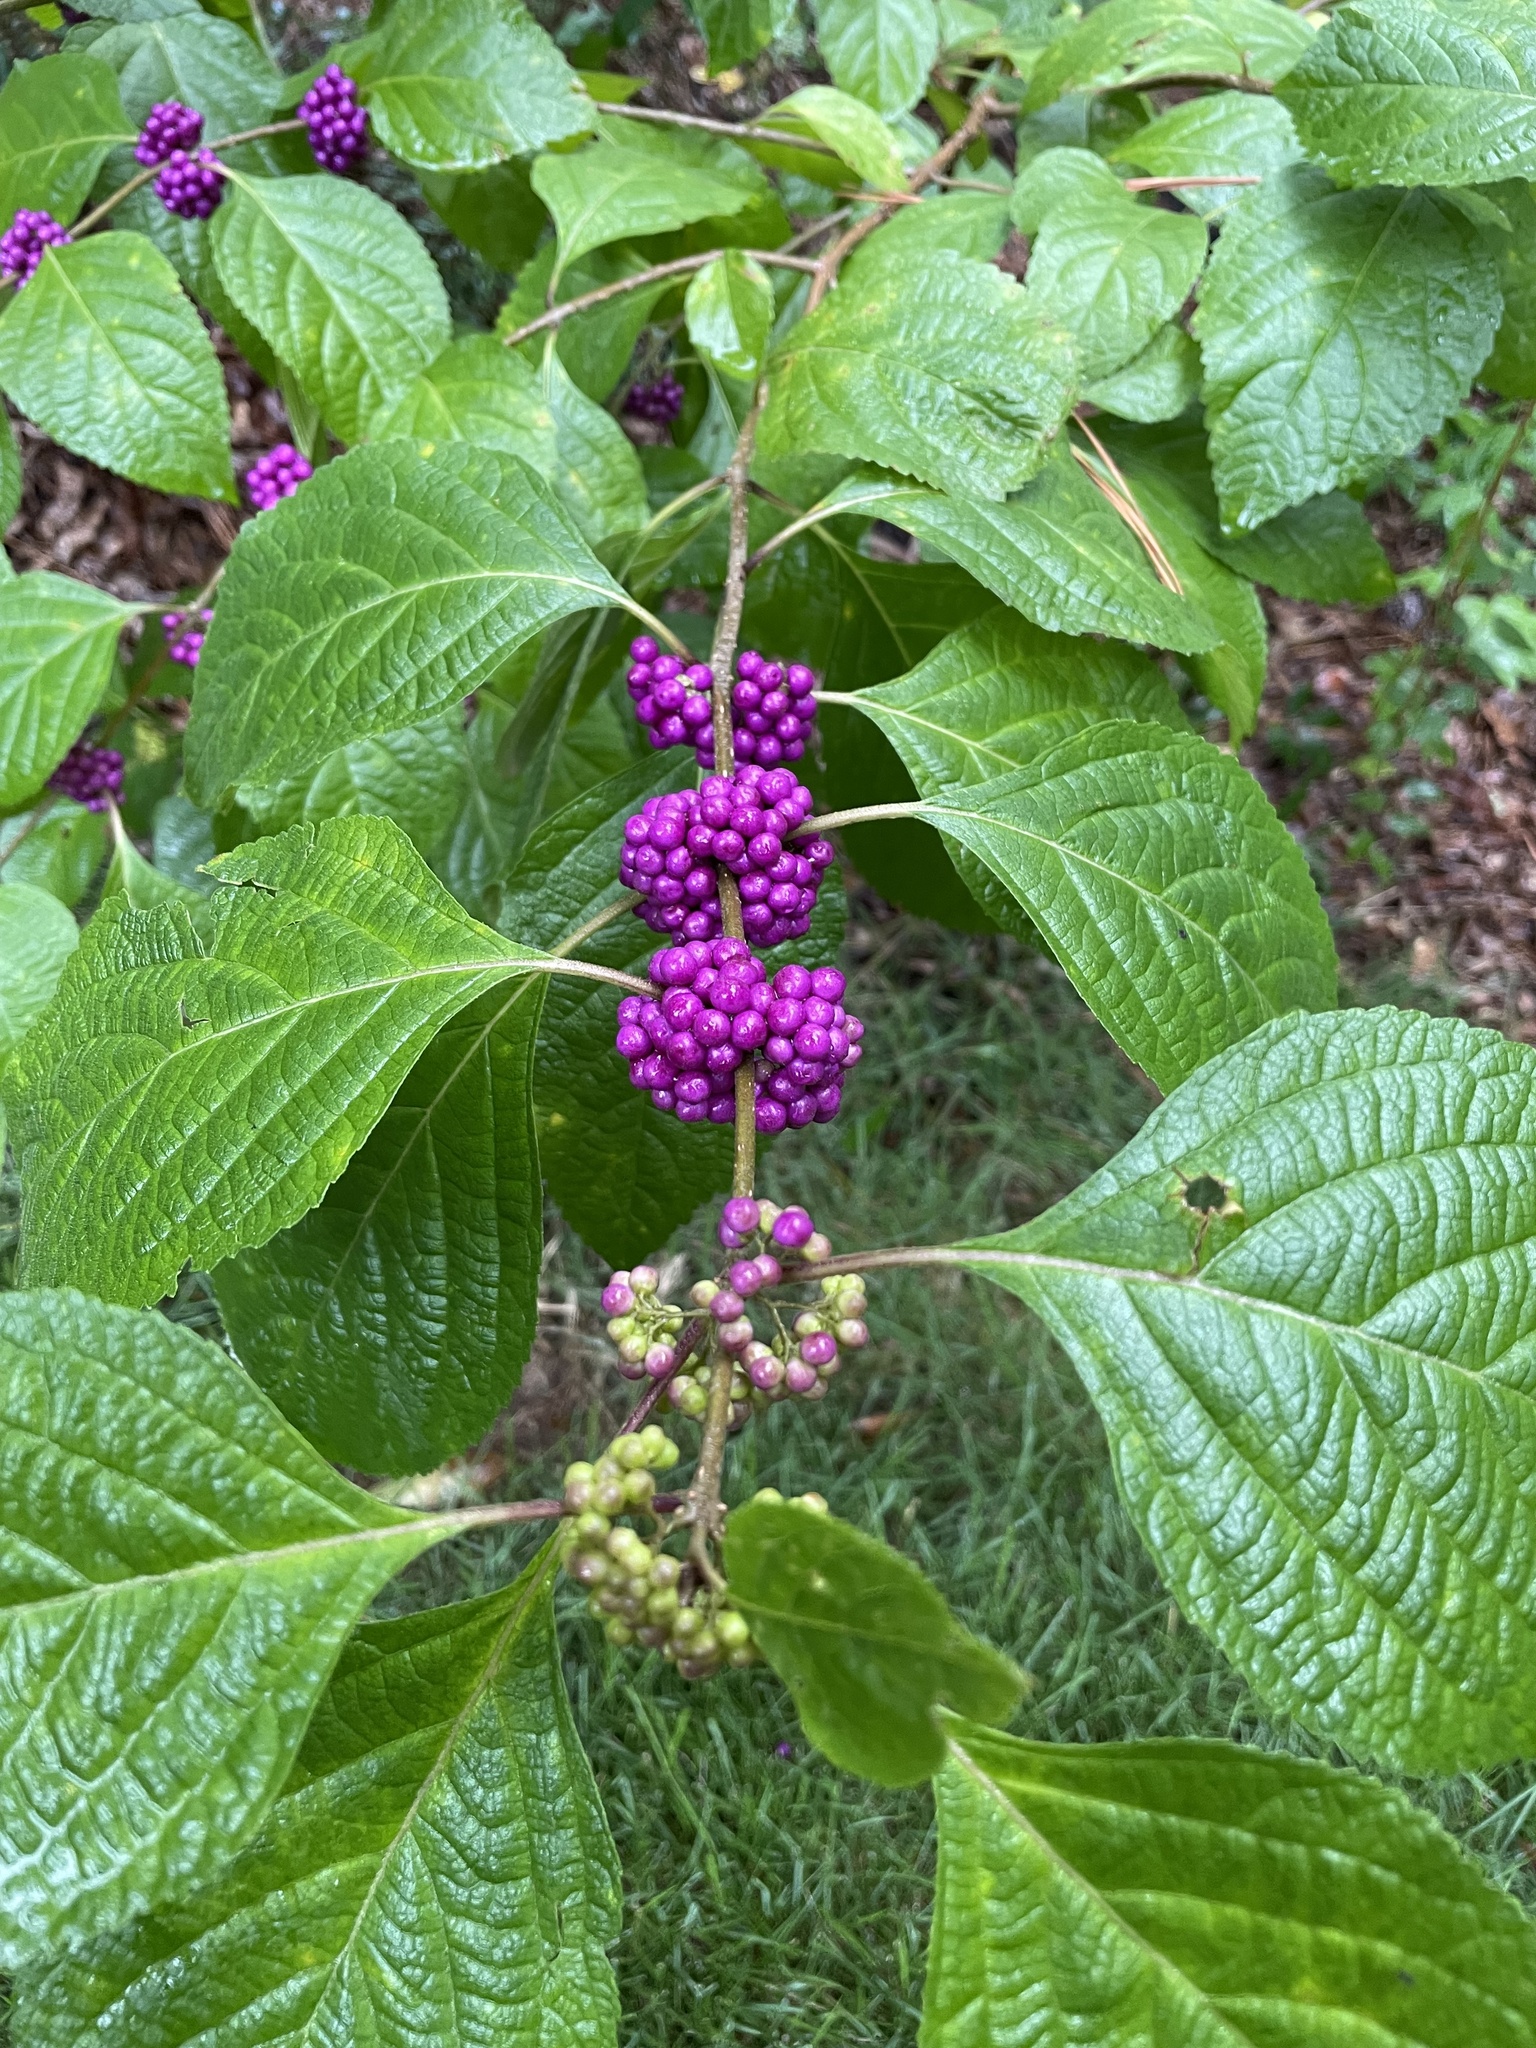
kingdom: Plantae
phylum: Tracheophyta
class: Magnoliopsida
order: Lamiales
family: Lamiaceae
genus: Callicarpa
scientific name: Callicarpa americana
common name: American beautyberry
